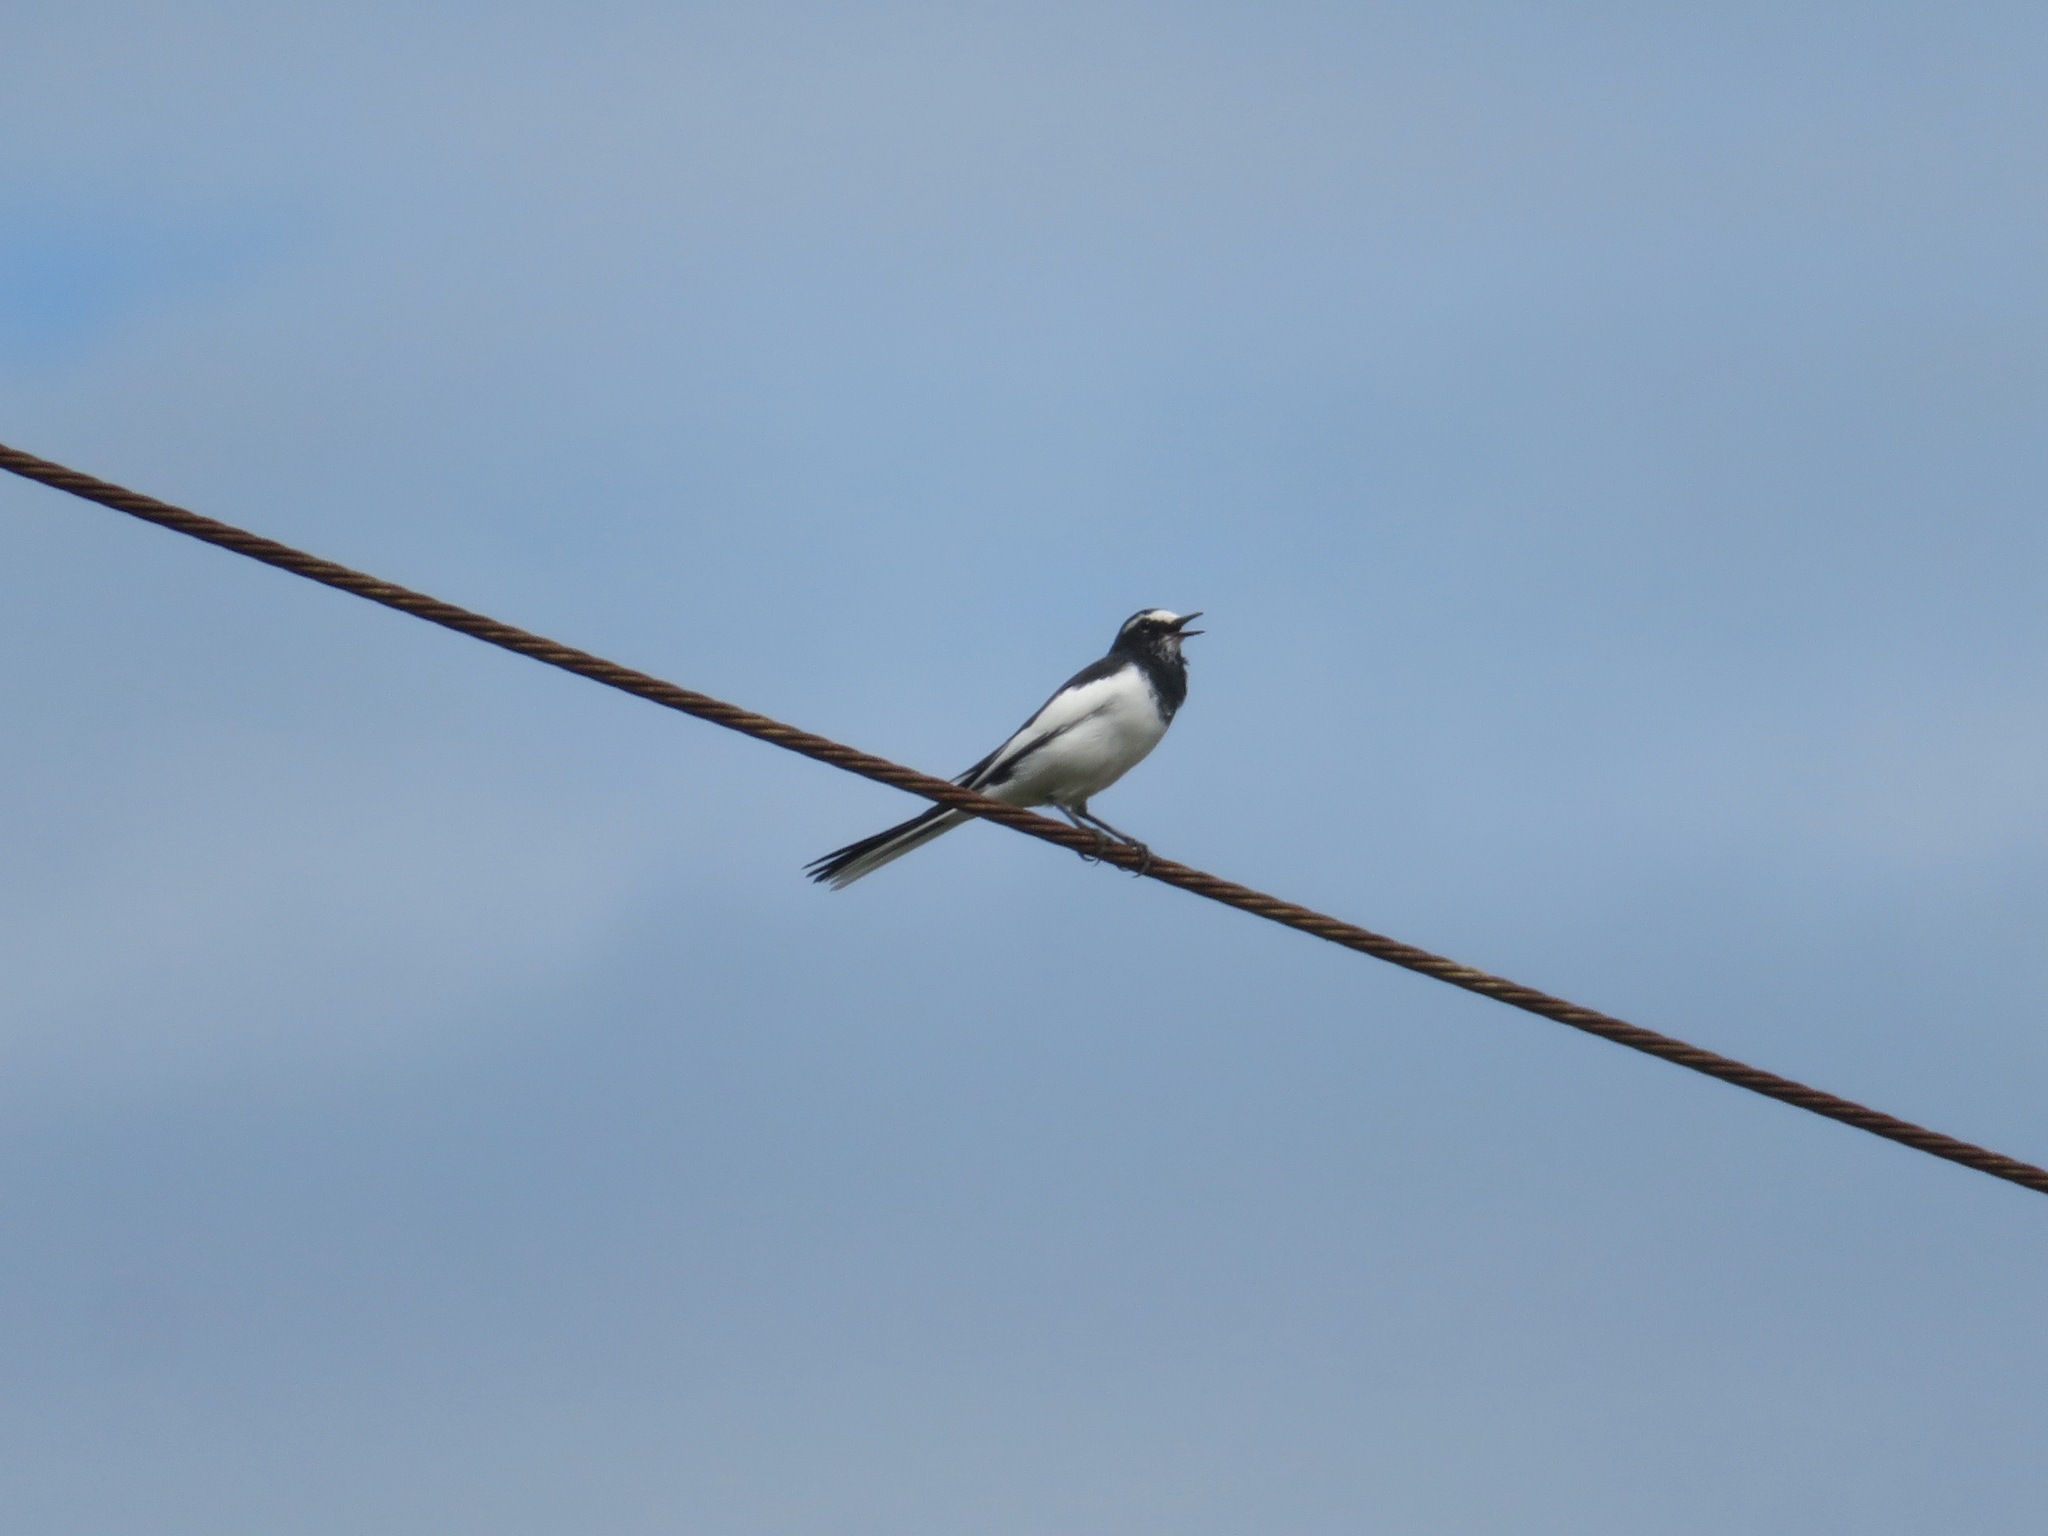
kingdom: Animalia
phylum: Chordata
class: Aves
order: Passeriformes
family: Motacillidae
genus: Motacilla
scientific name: Motacilla grandis
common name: Japanese wagtail
